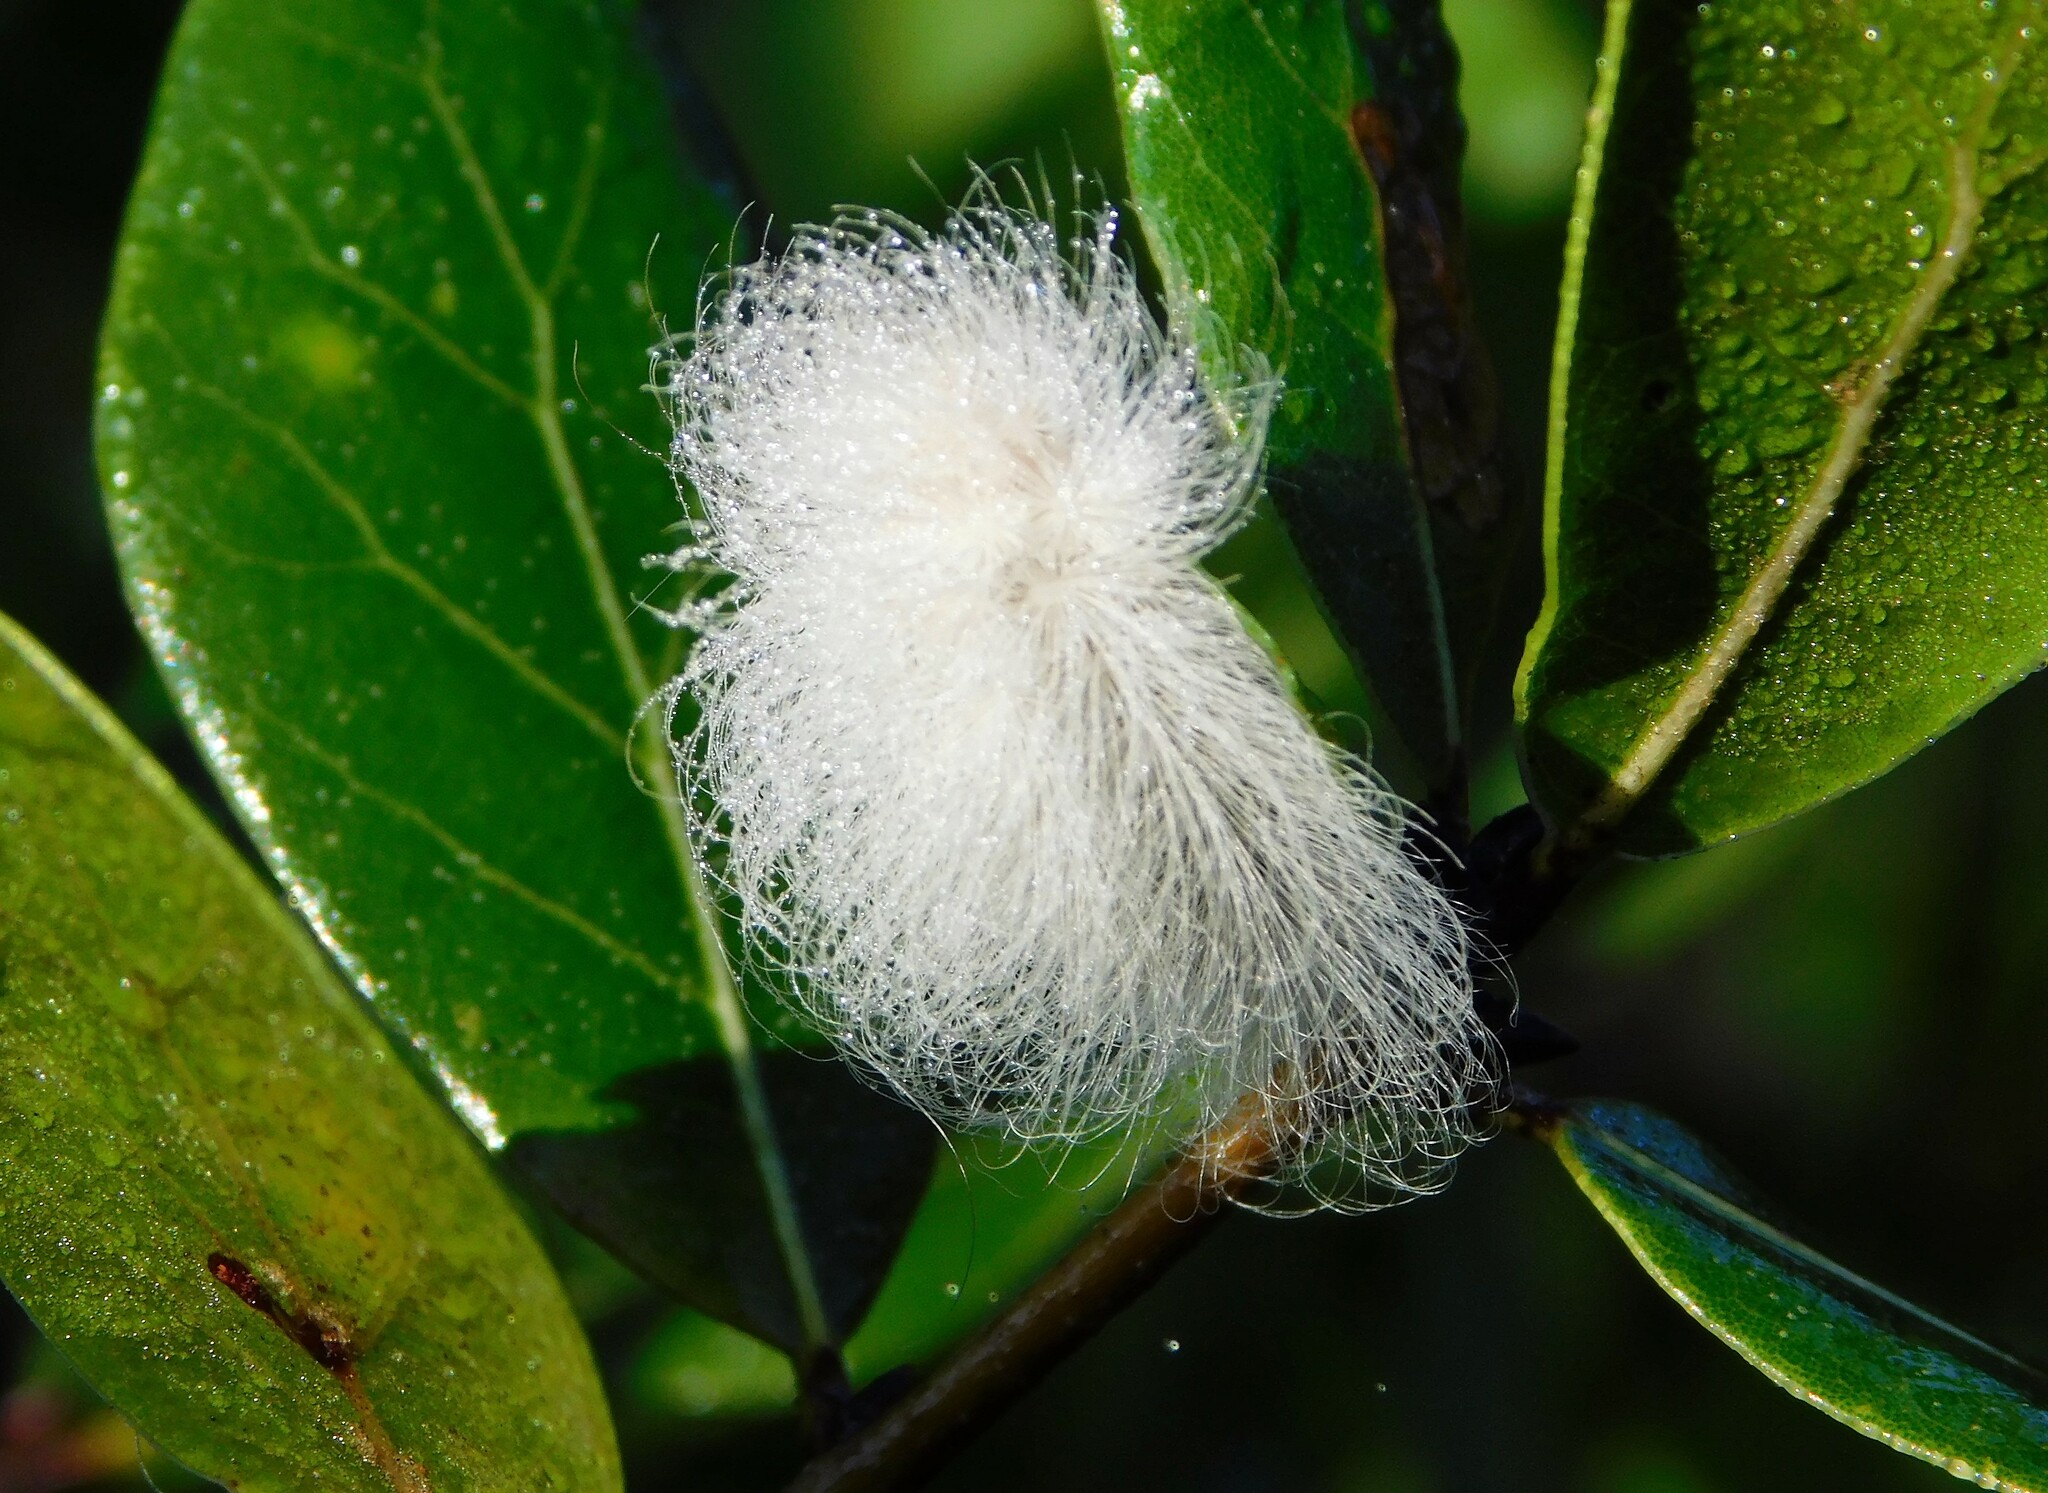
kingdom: Animalia
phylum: Arthropoda
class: Insecta
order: Lepidoptera
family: Megalopygidae
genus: Megalopyge
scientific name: Megalopyge
